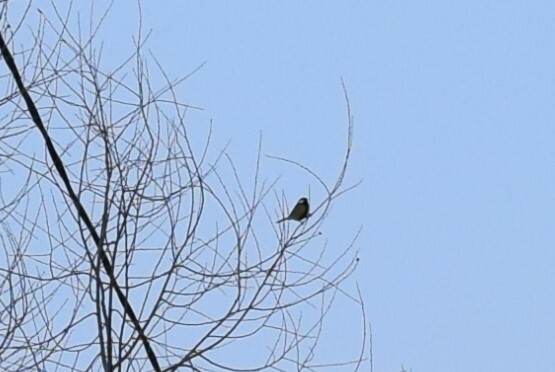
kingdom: Animalia
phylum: Chordata
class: Aves
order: Passeriformes
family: Paridae
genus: Parus
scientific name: Parus major
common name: Great tit
